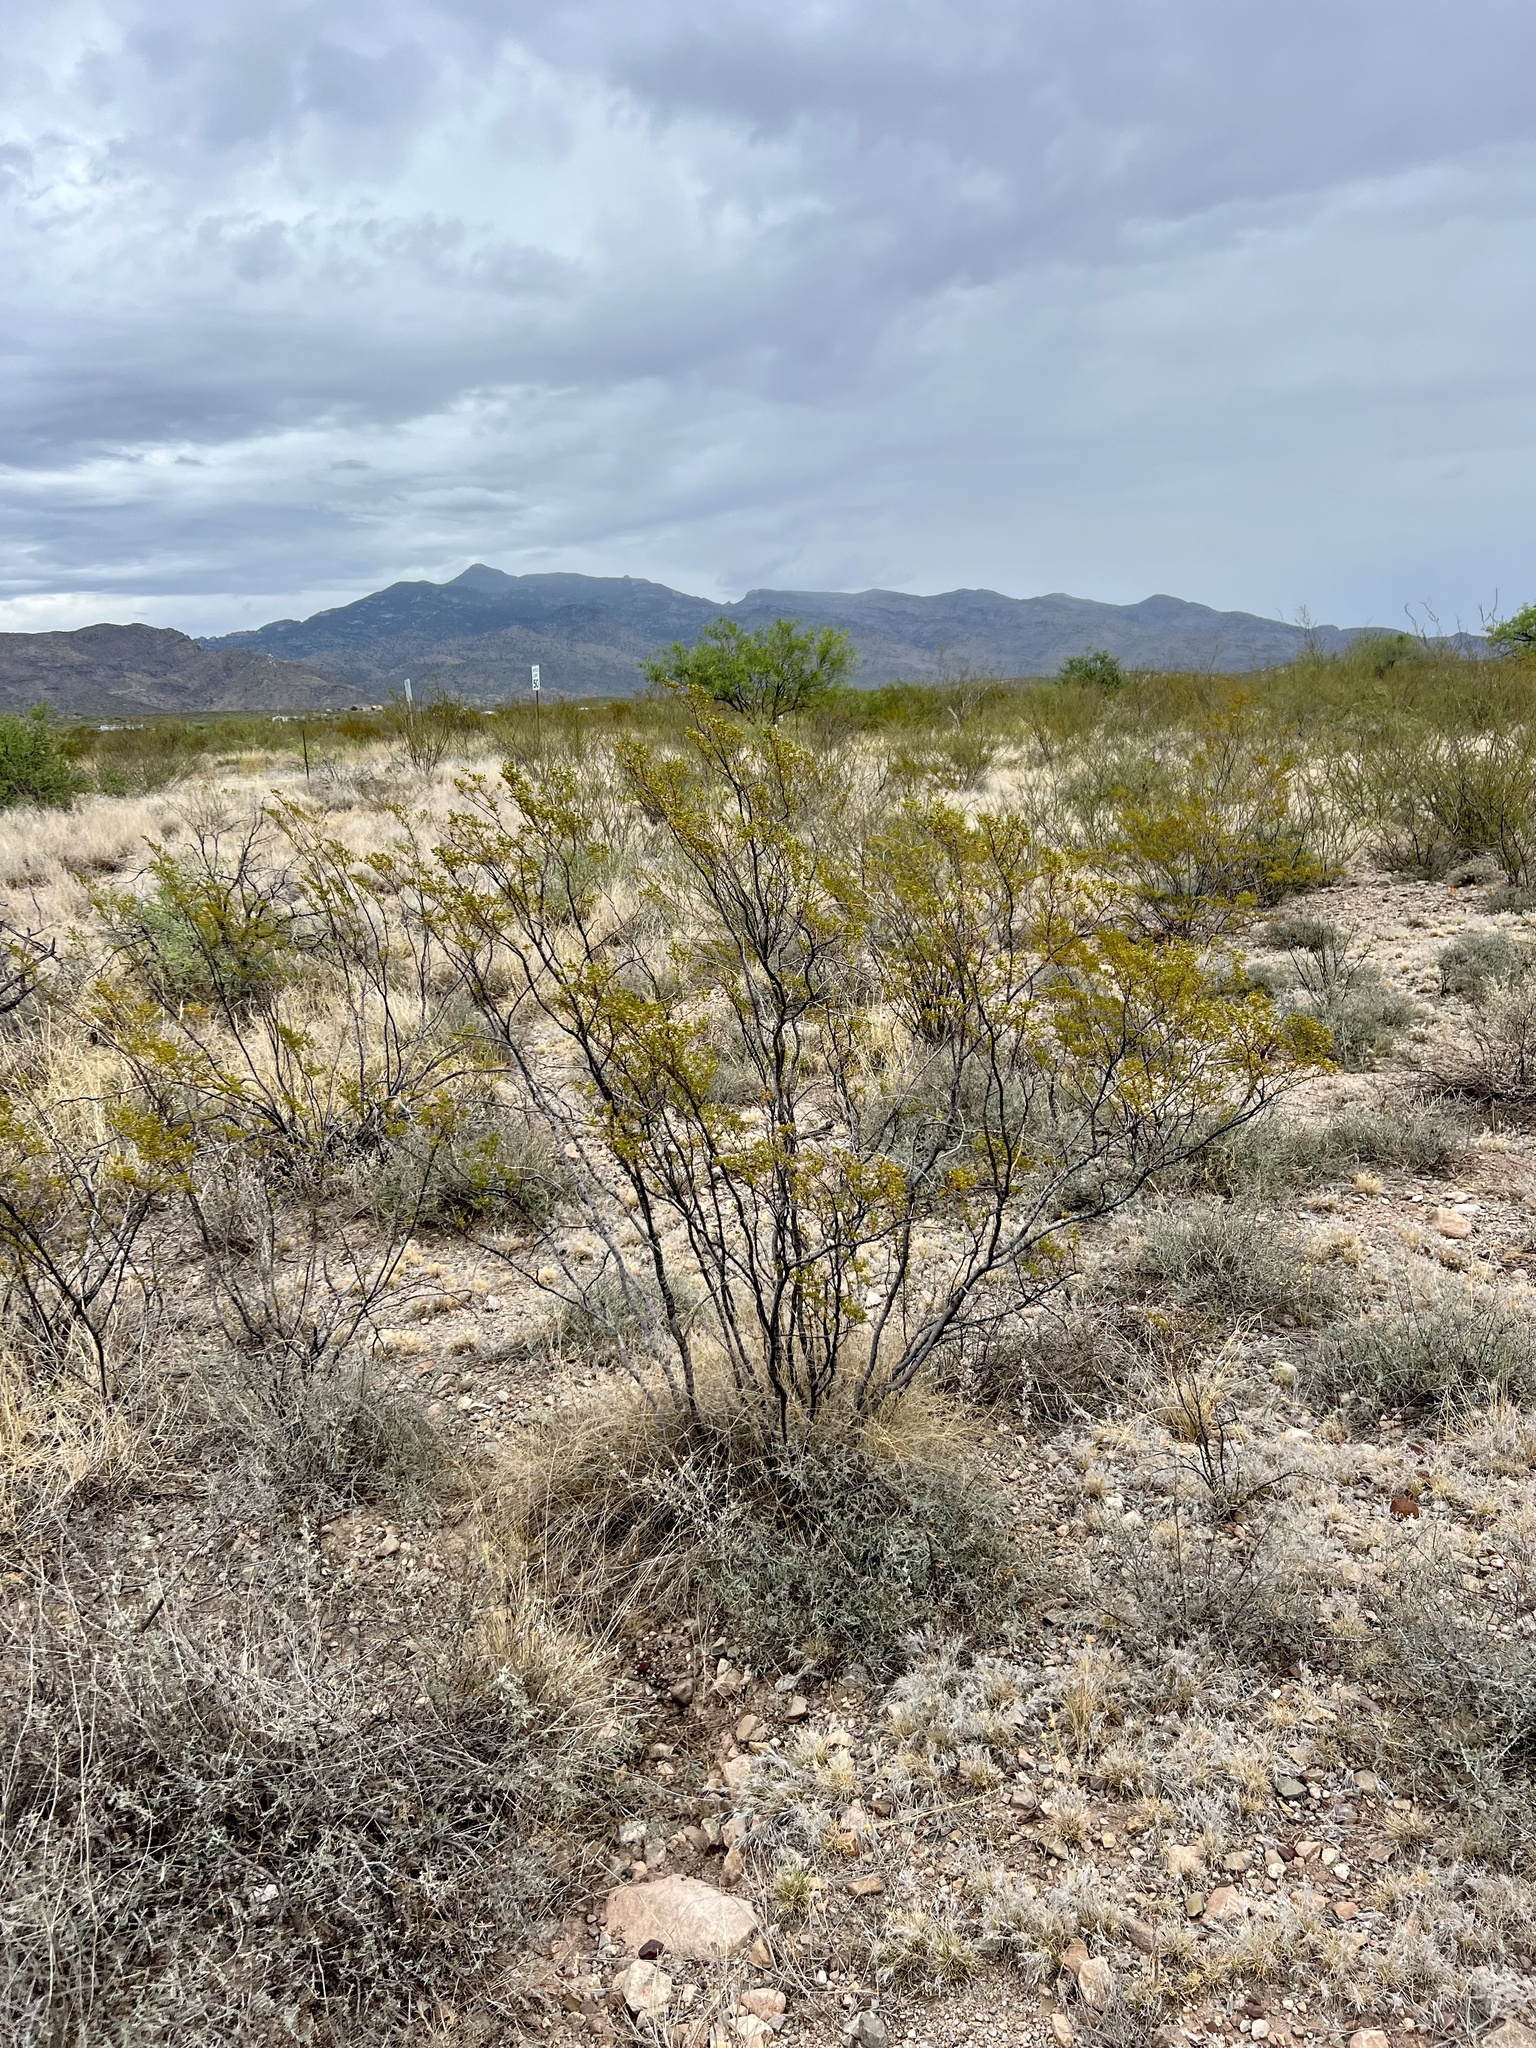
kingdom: Plantae
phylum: Tracheophyta
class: Magnoliopsida
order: Zygophyllales
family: Zygophyllaceae
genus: Larrea
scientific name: Larrea tridentata
